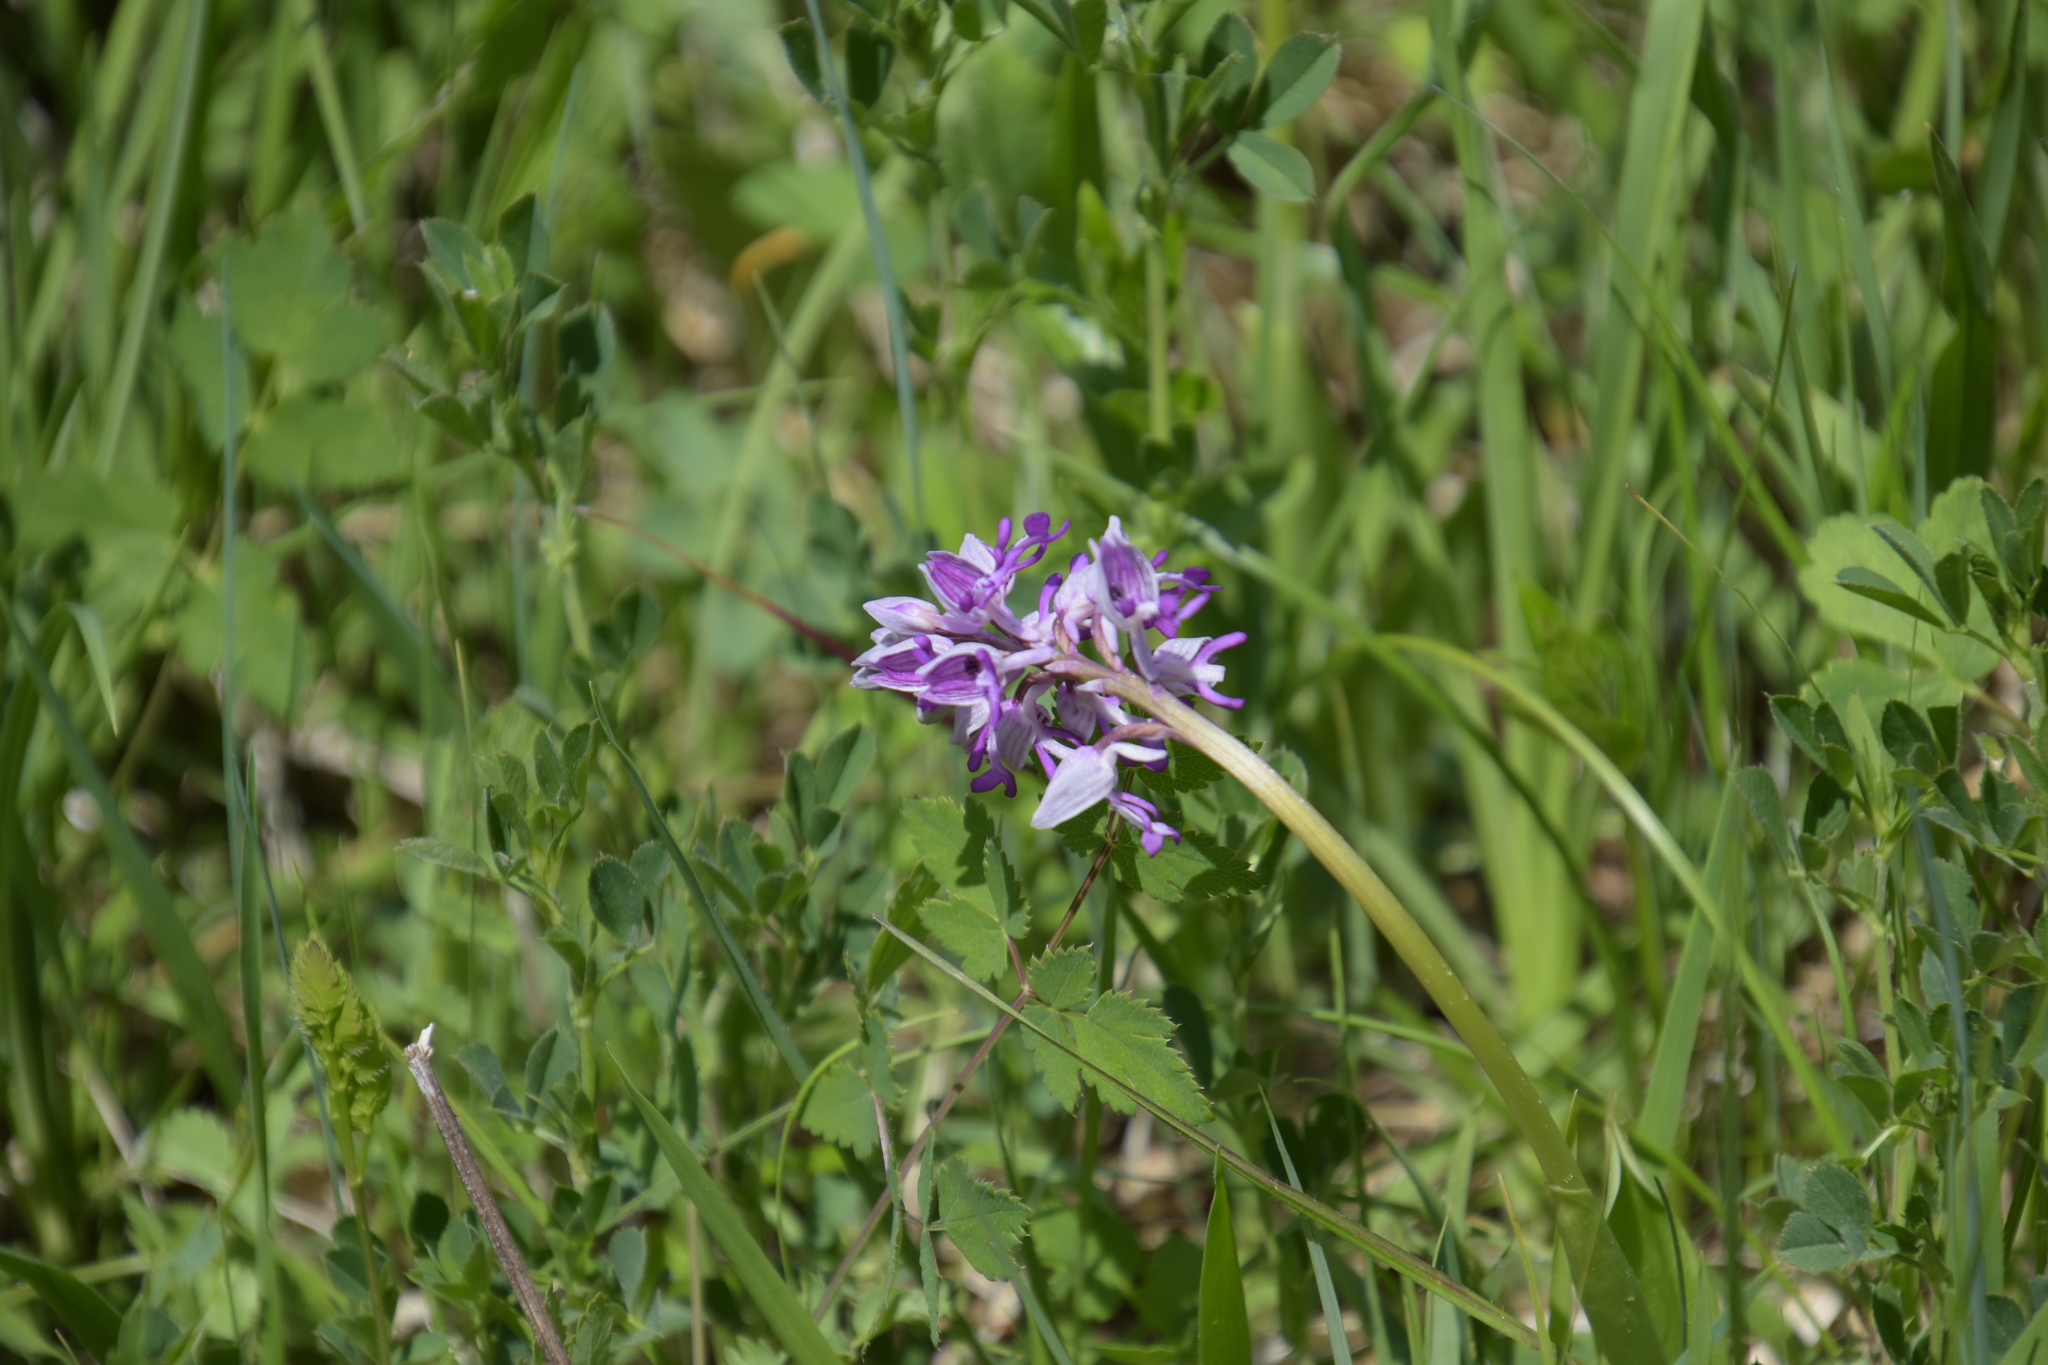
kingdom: Plantae
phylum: Tracheophyta
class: Liliopsida
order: Asparagales
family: Orchidaceae
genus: Orchis
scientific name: Orchis militaris
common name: Military orchid
